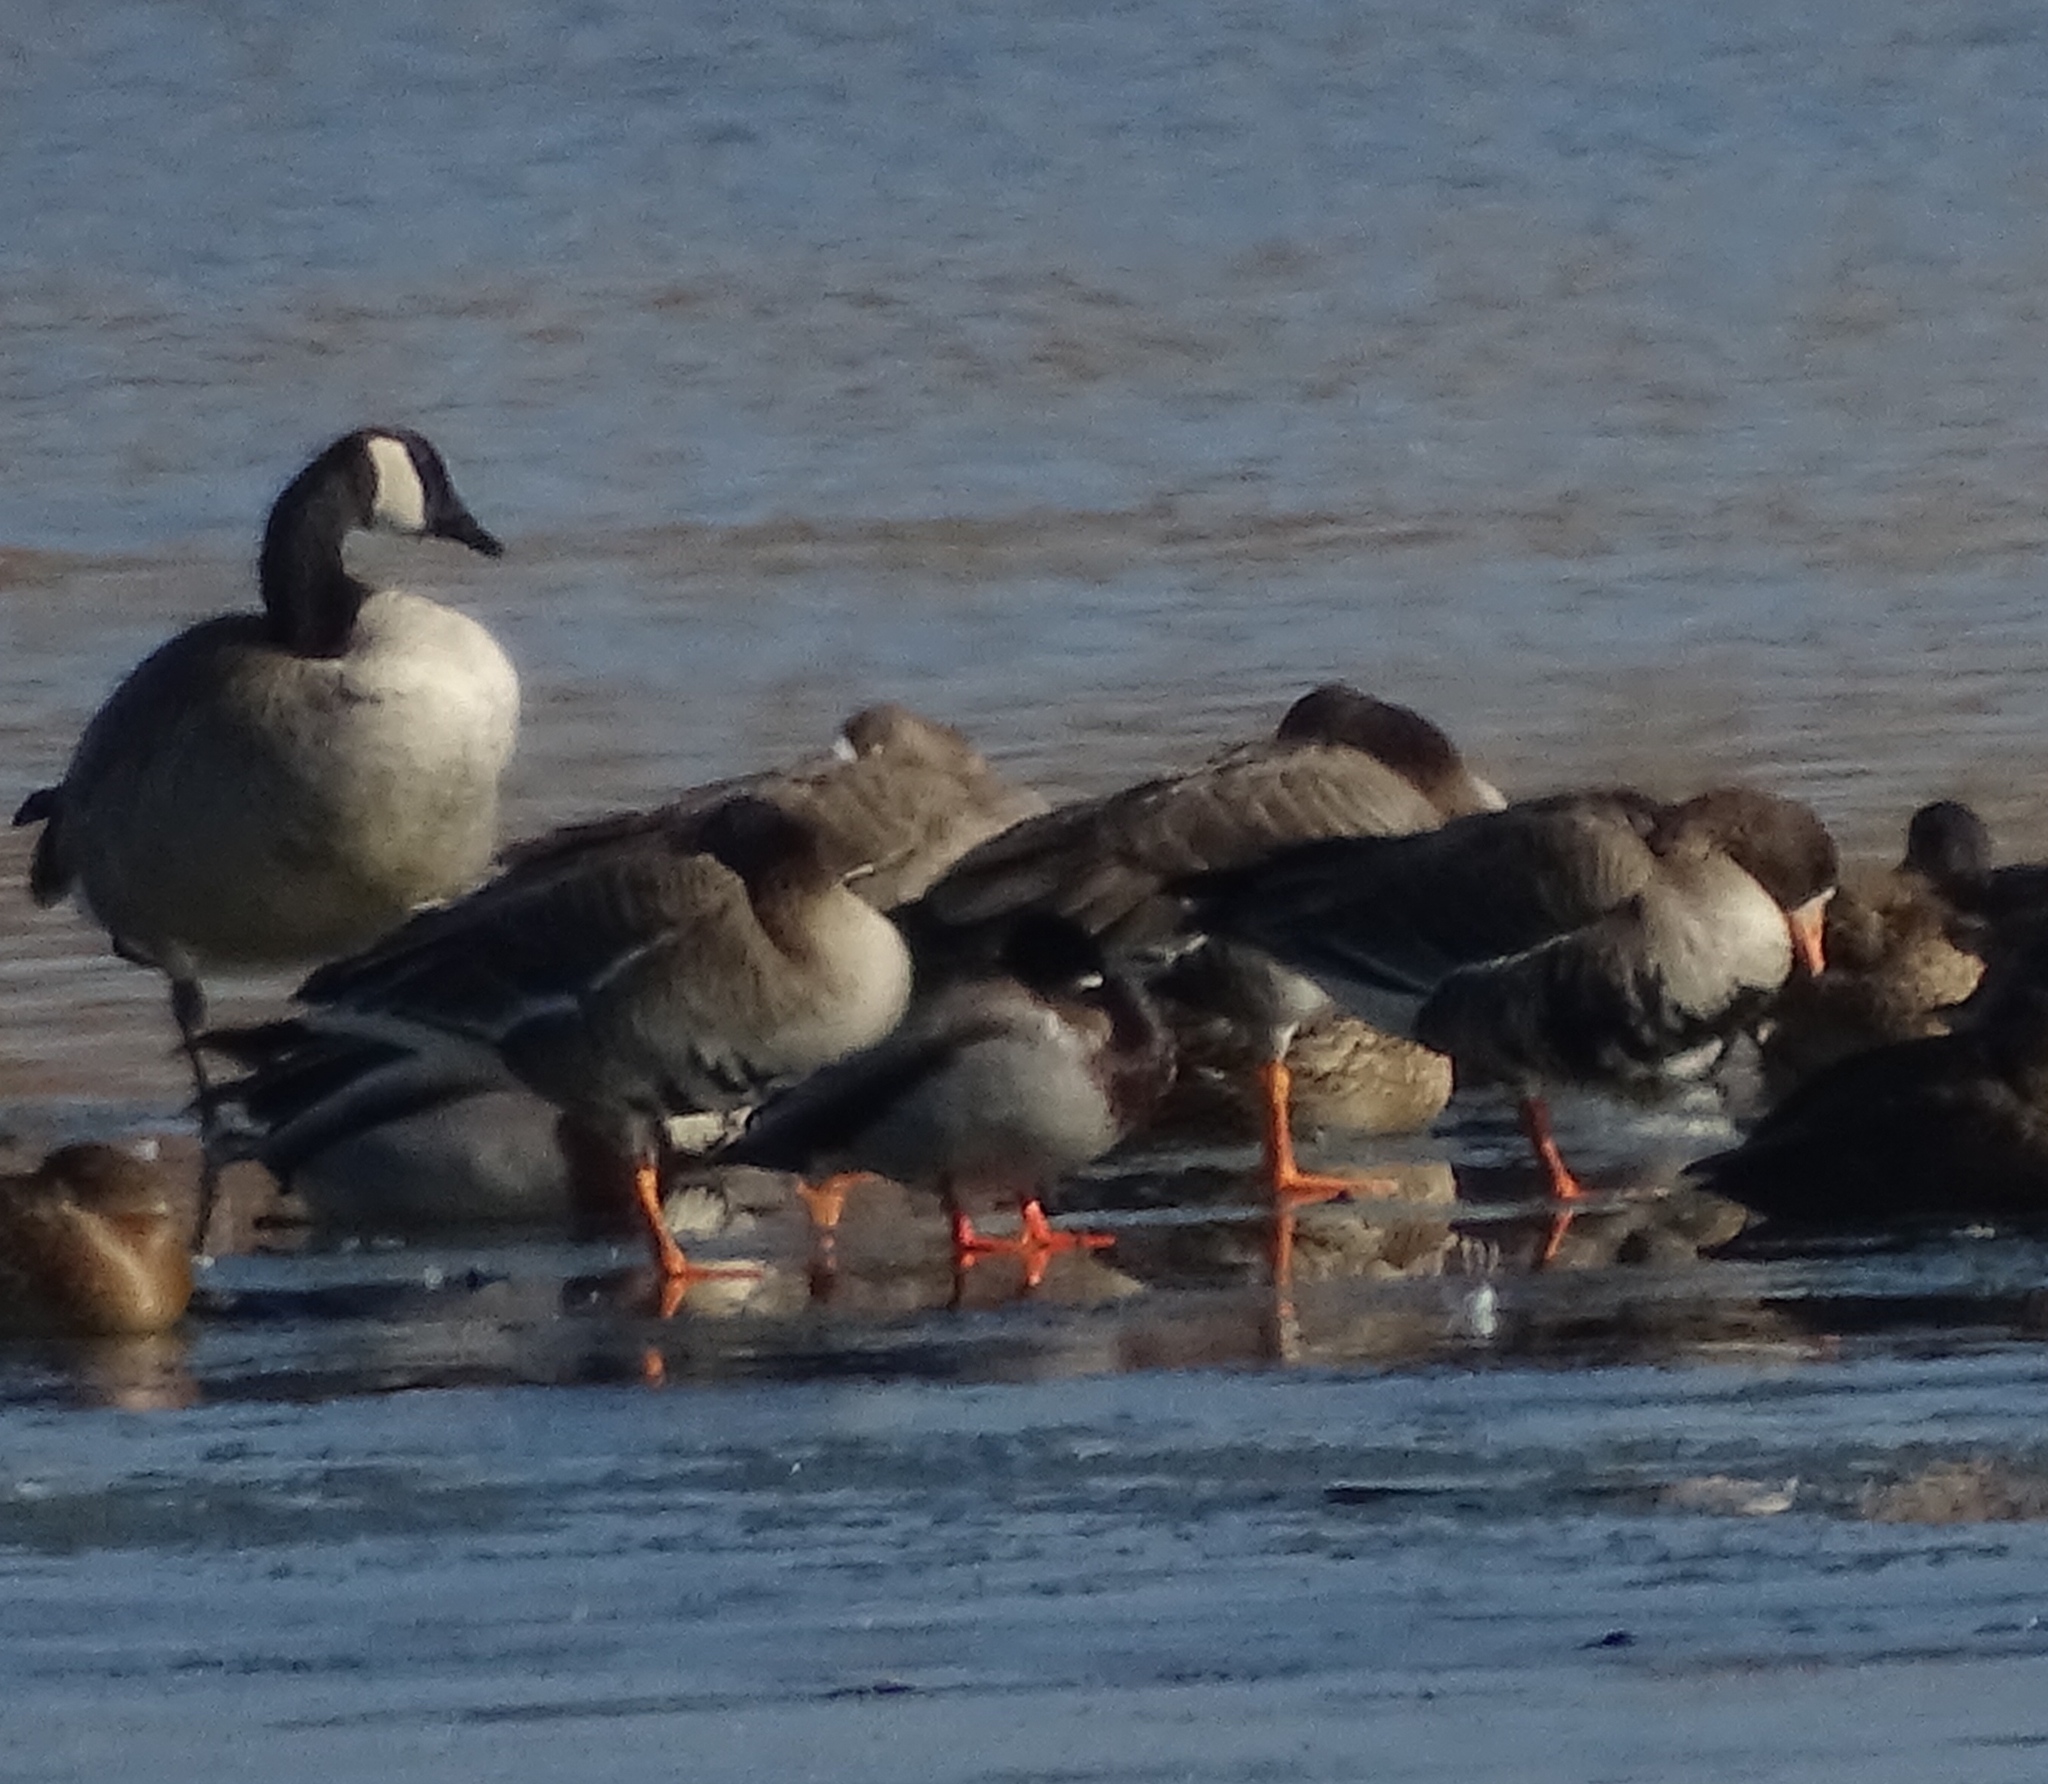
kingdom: Animalia
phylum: Chordata
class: Aves
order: Anseriformes
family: Anatidae
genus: Anser
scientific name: Anser albifrons
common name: Greater white-fronted goose
